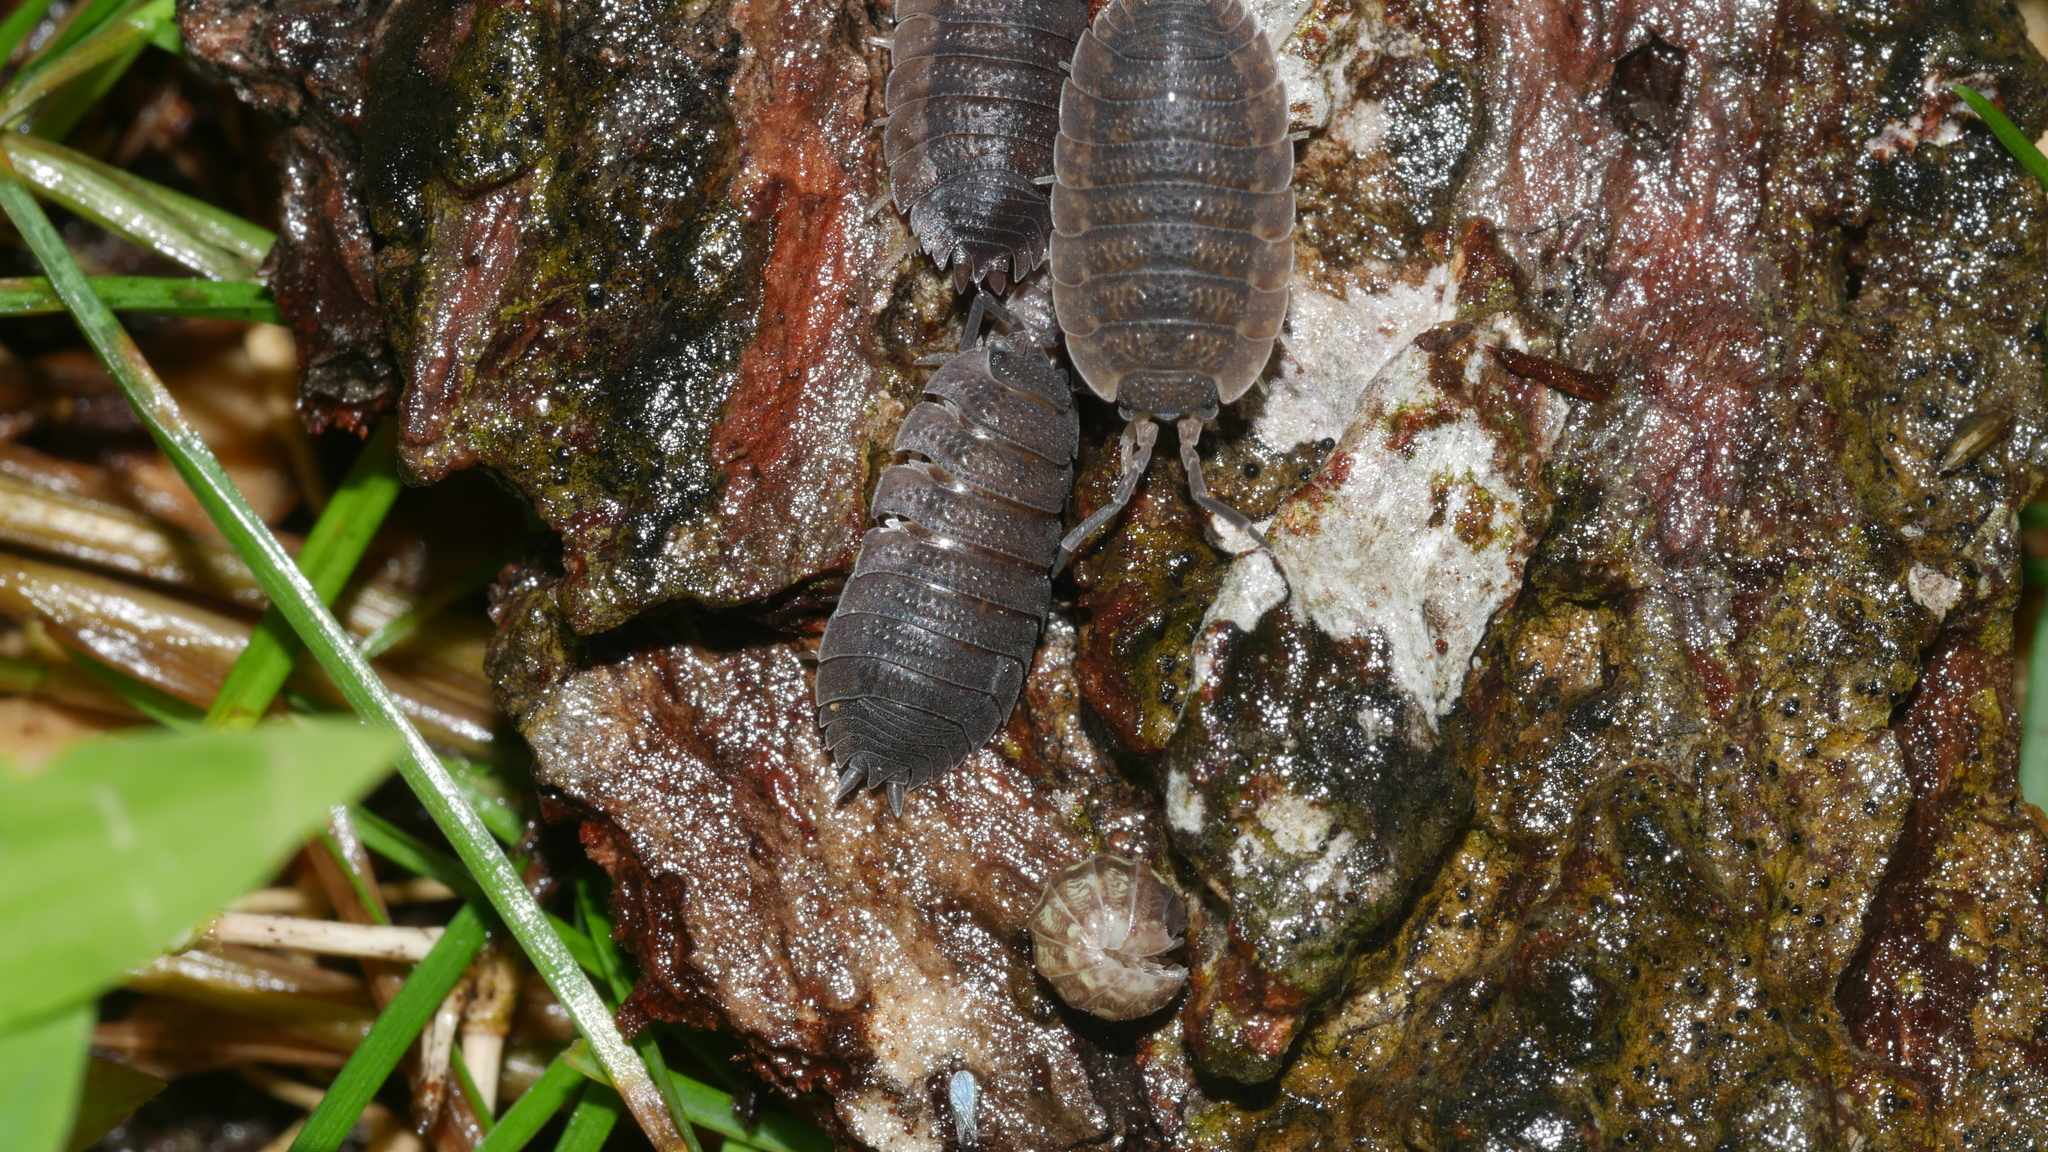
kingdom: Animalia
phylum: Arthropoda
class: Malacostraca
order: Isopoda
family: Porcellionidae
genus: Porcellio
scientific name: Porcellio scaber
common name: Common rough woodlouse
